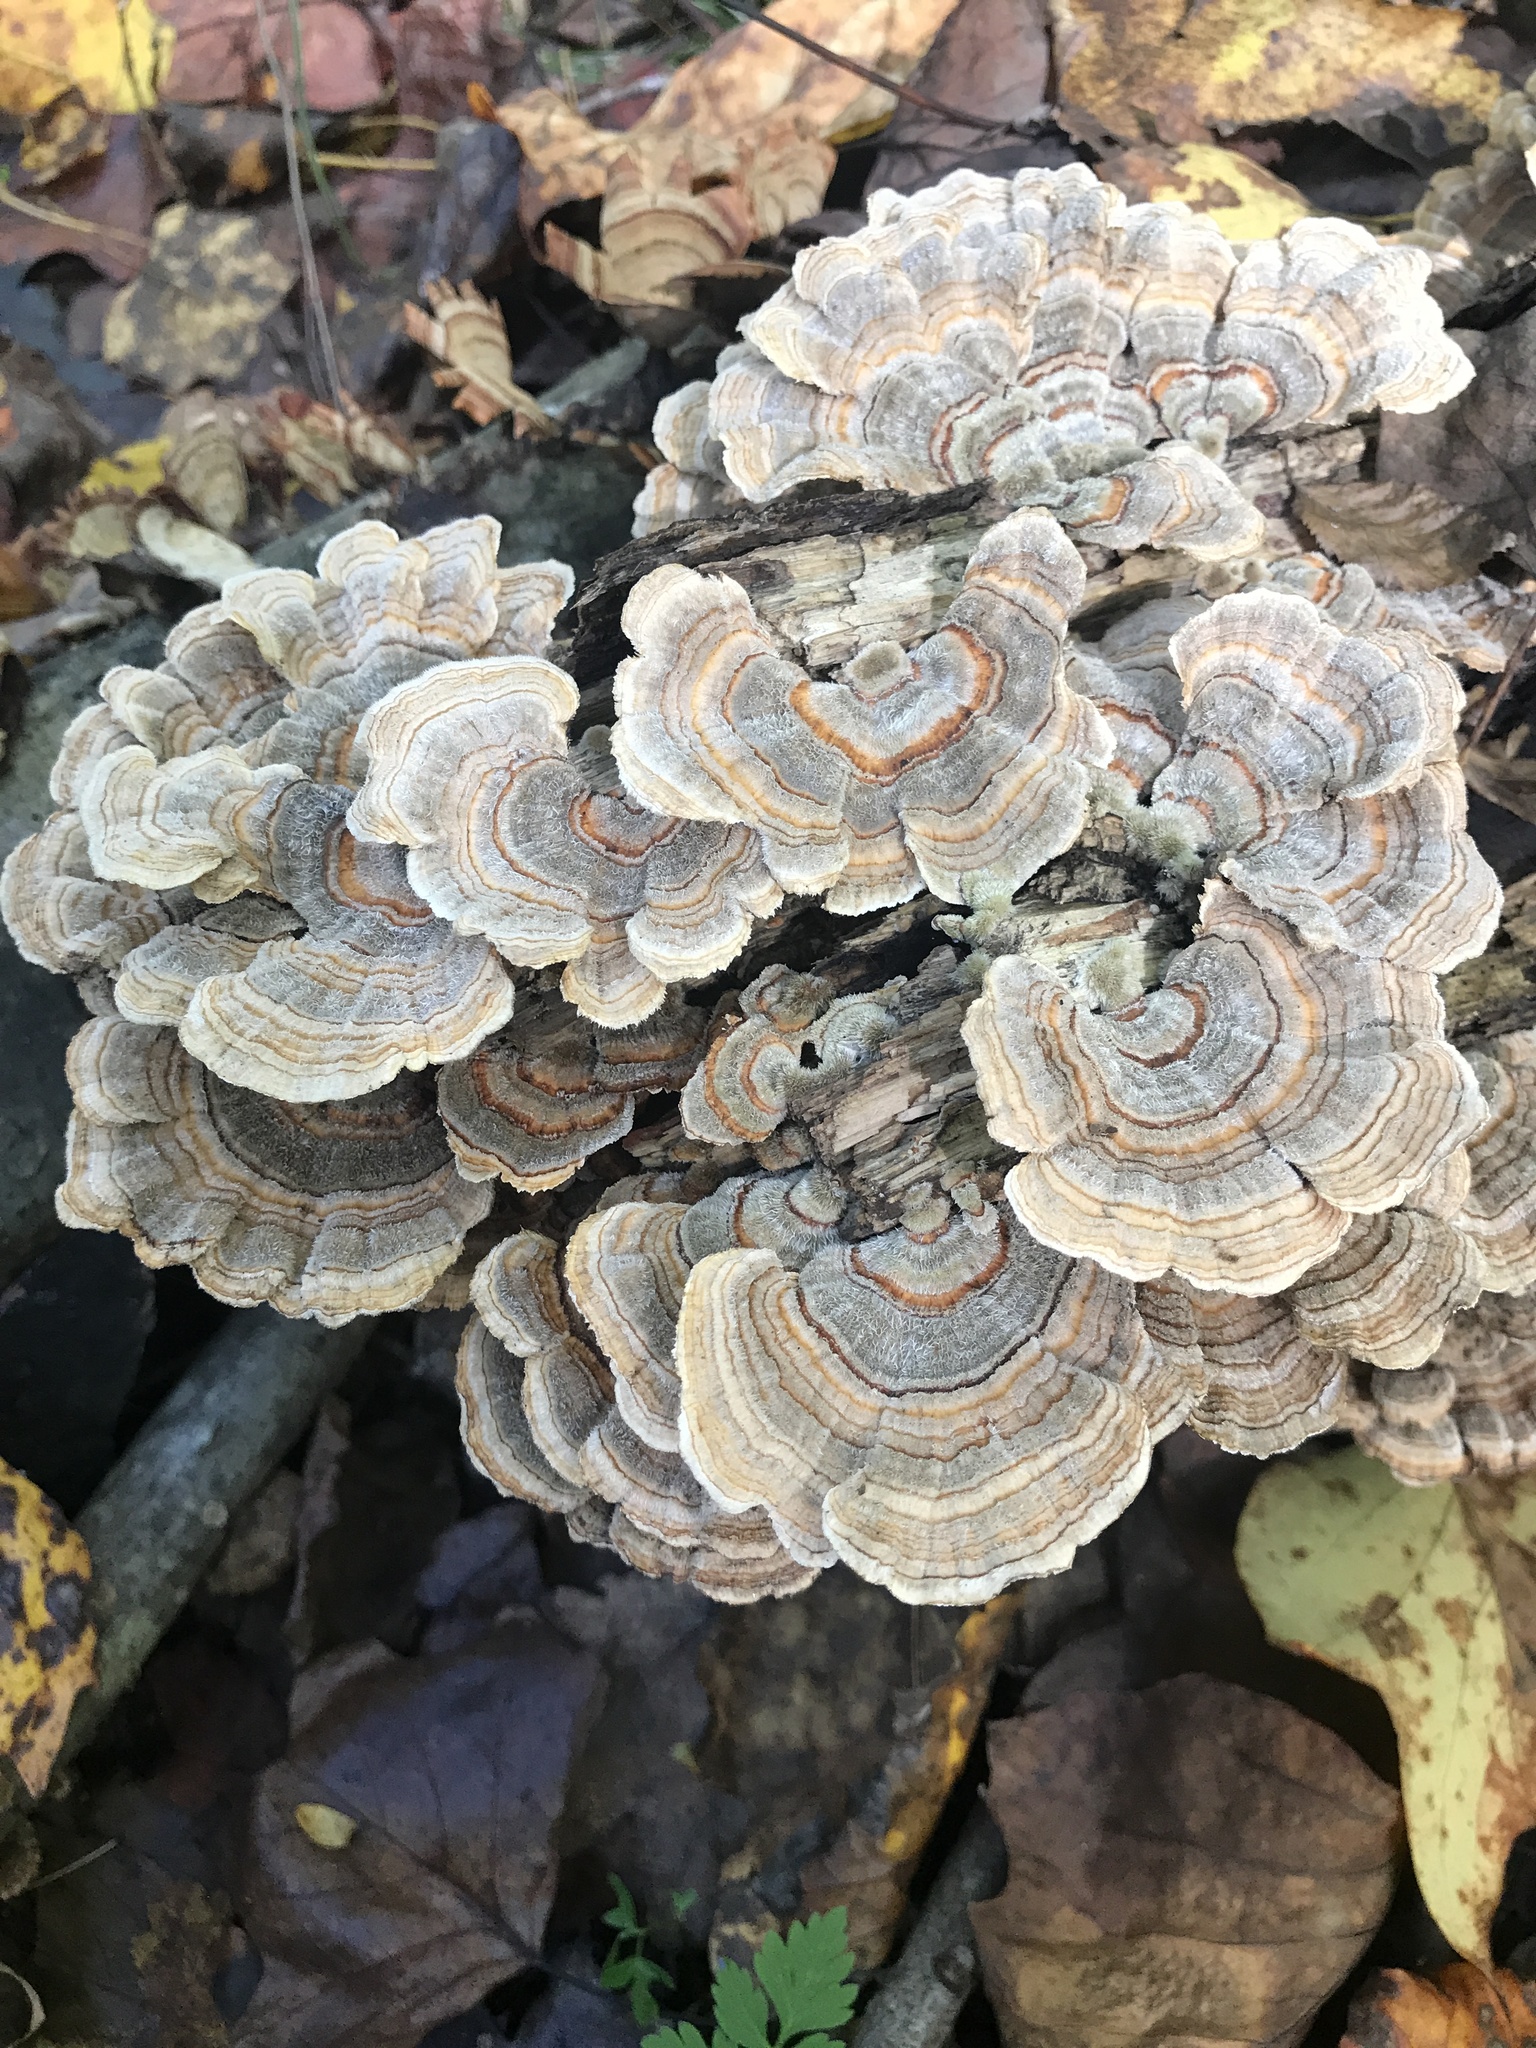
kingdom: Fungi
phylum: Basidiomycota
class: Agaricomycetes
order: Polyporales
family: Polyporaceae
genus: Trametes
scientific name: Trametes versicolor
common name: Turkeytail
